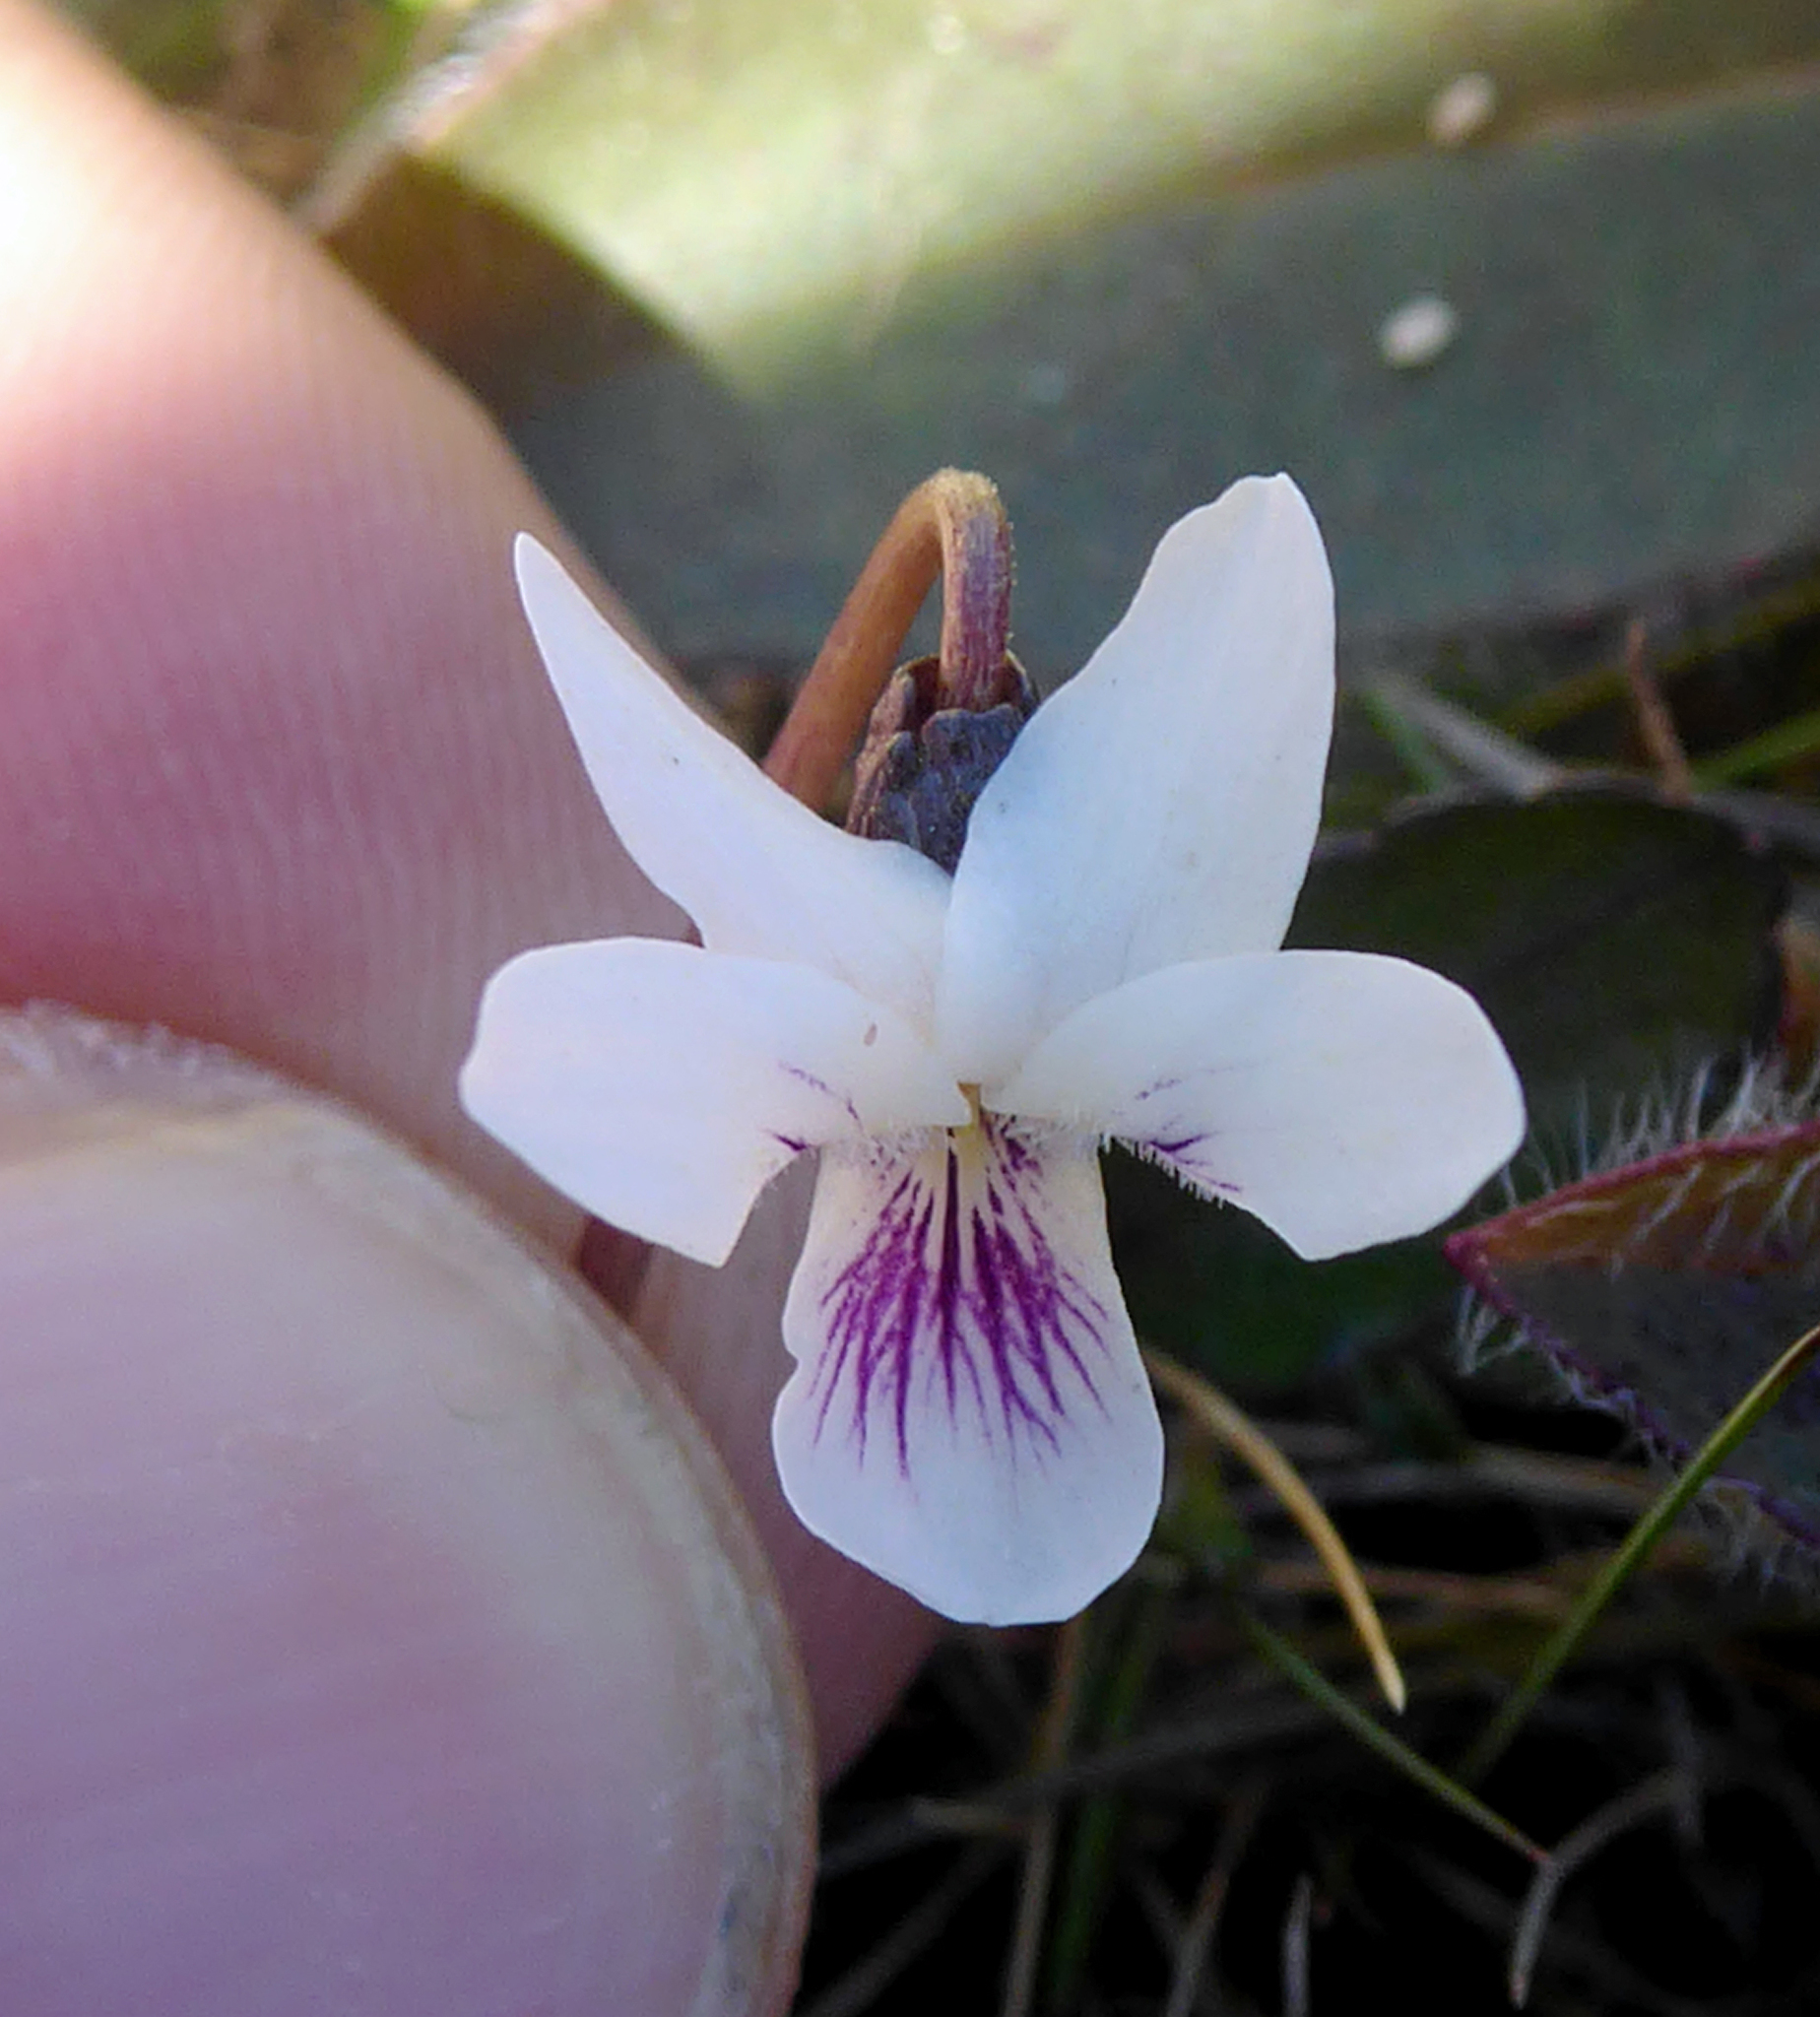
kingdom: Plantae
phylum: Tracheophyta
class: Magnoliopsida
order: Malpighiales
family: Violaceae
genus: Viola
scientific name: Viola cunninghamii
